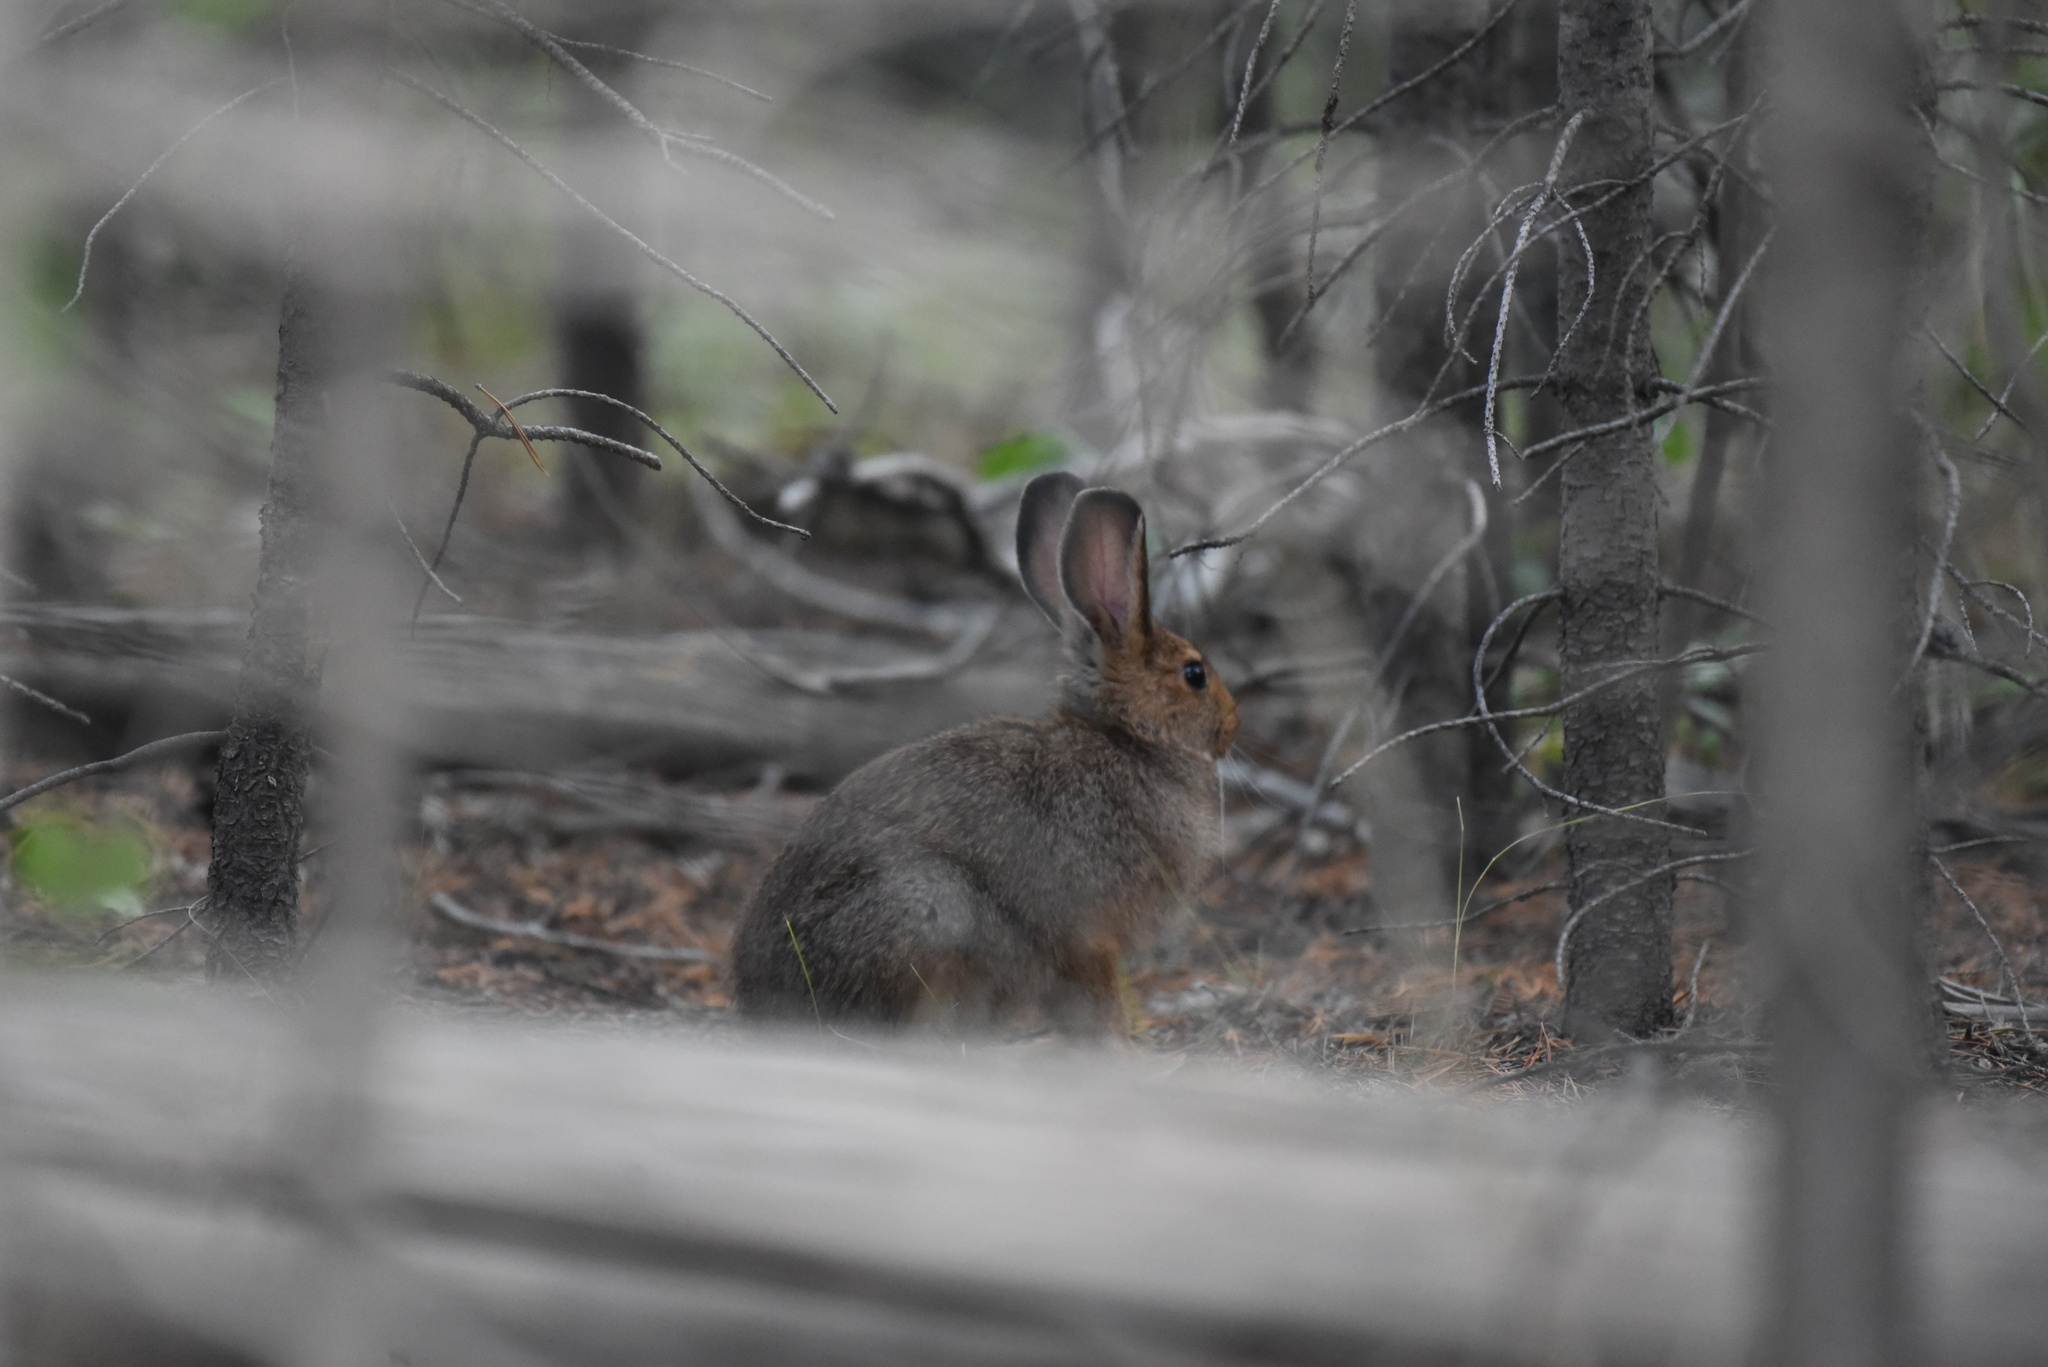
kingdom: Animalia
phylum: Chordata
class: Mammalia
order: Lagomorpha
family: Leporidae
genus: Lepus
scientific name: Lepus americanus
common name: Snowshoe hare
